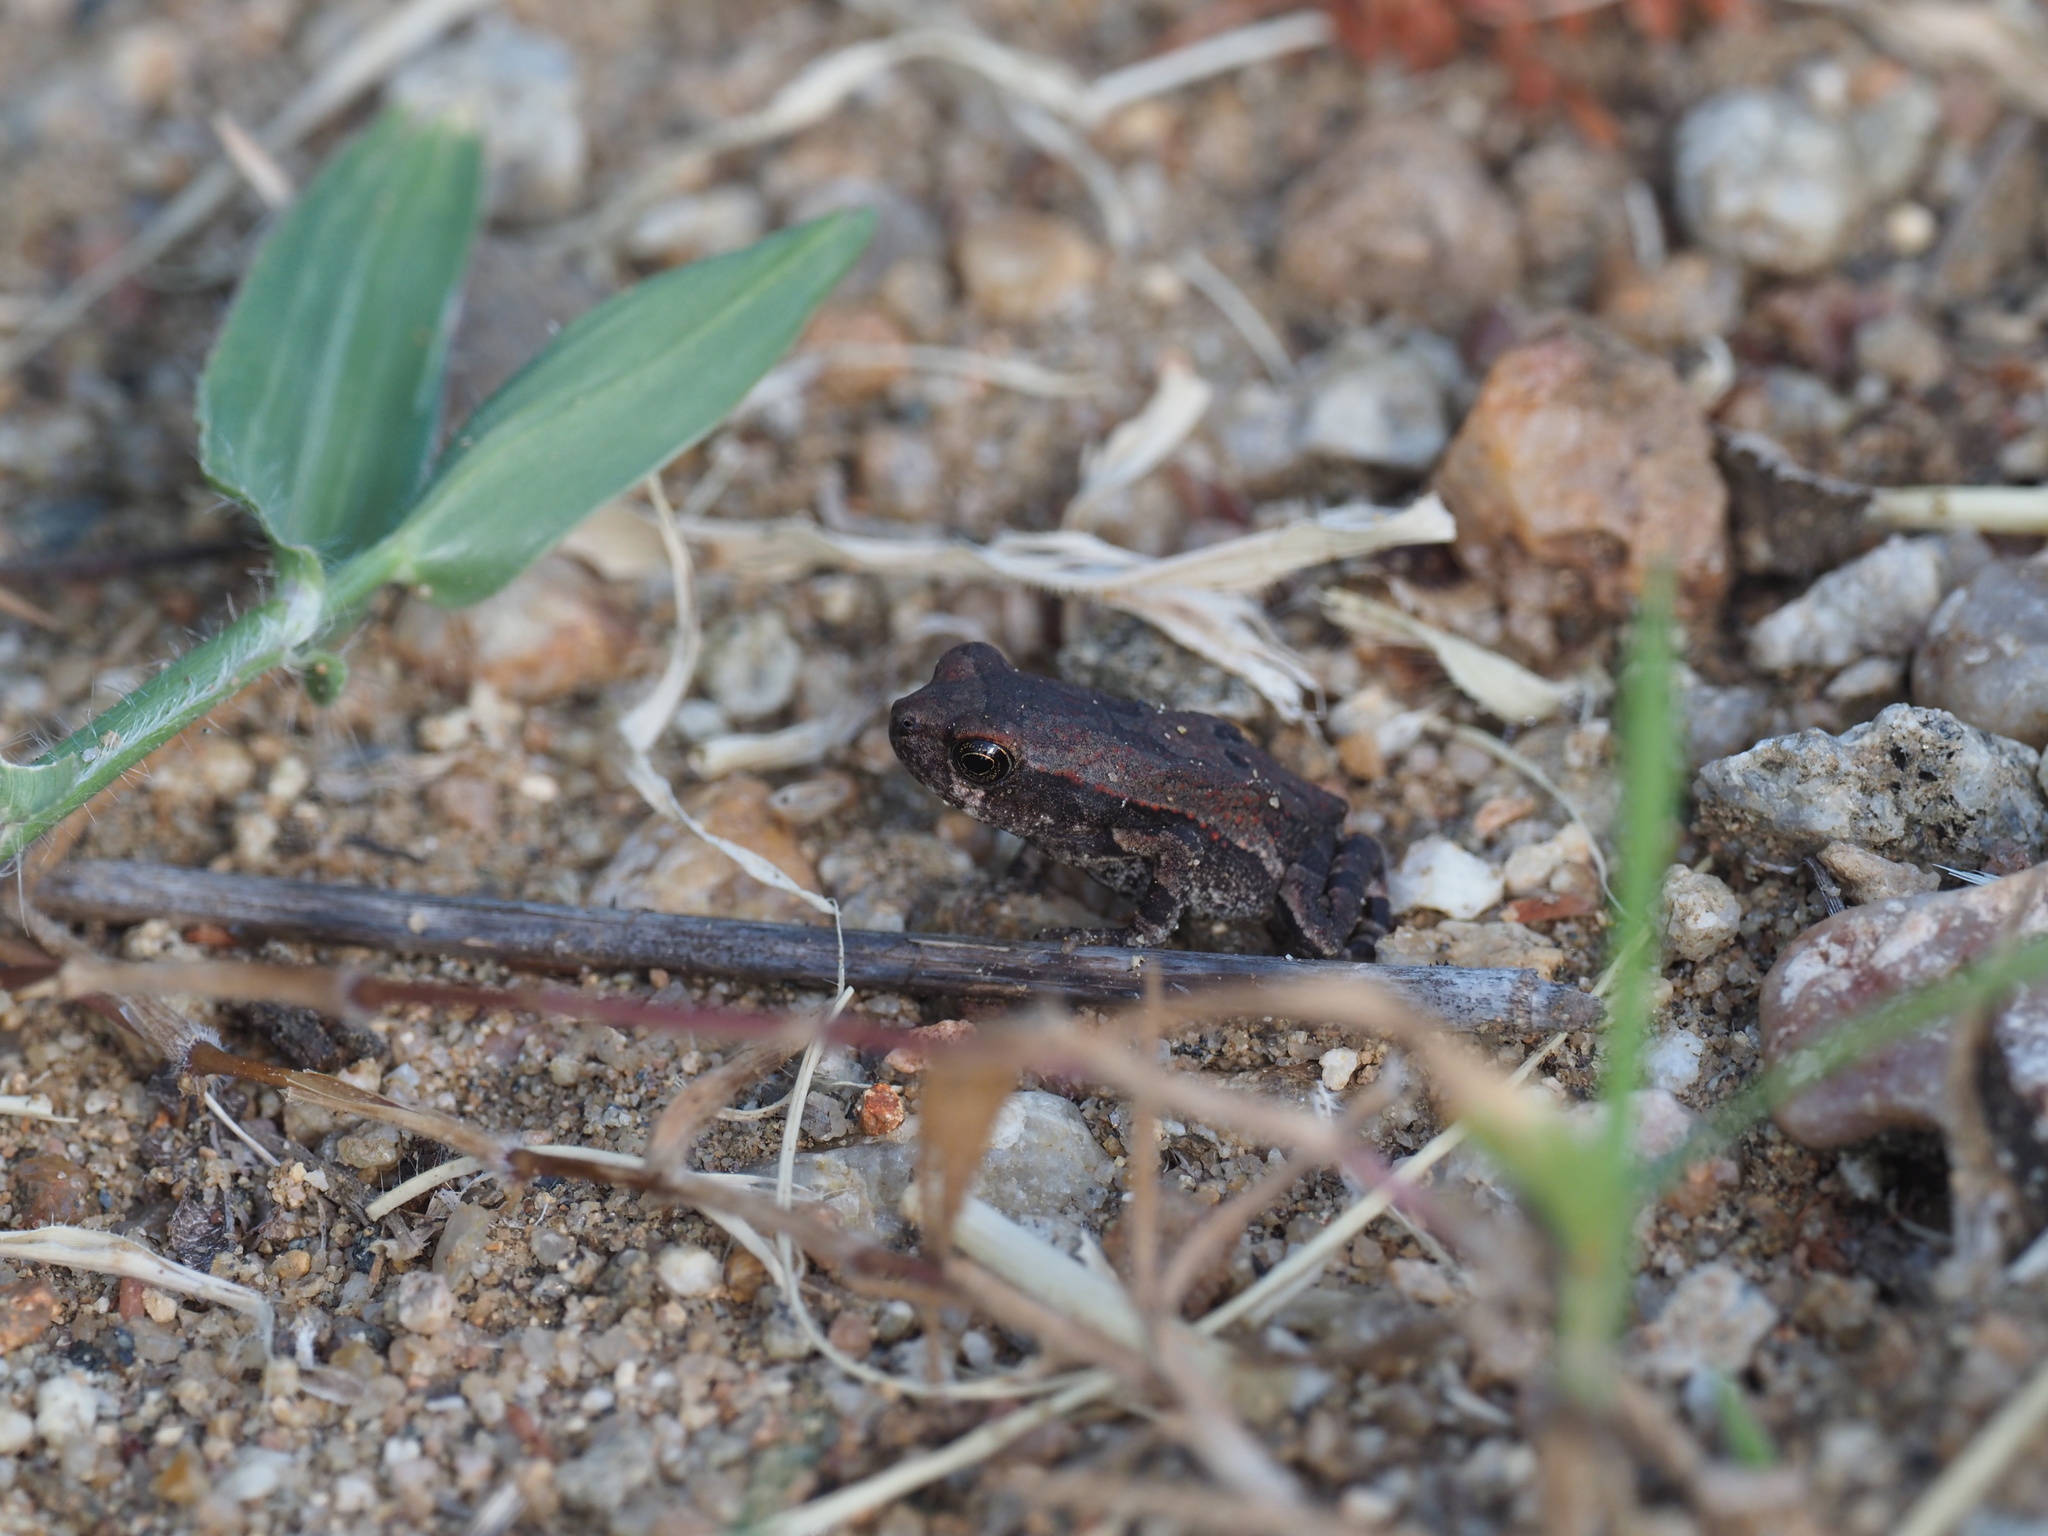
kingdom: Animalia
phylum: Chordata
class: Amphibia
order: Anura
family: Bufonidae
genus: Schismaderma
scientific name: Schismaderma carens
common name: African split-skin toad
